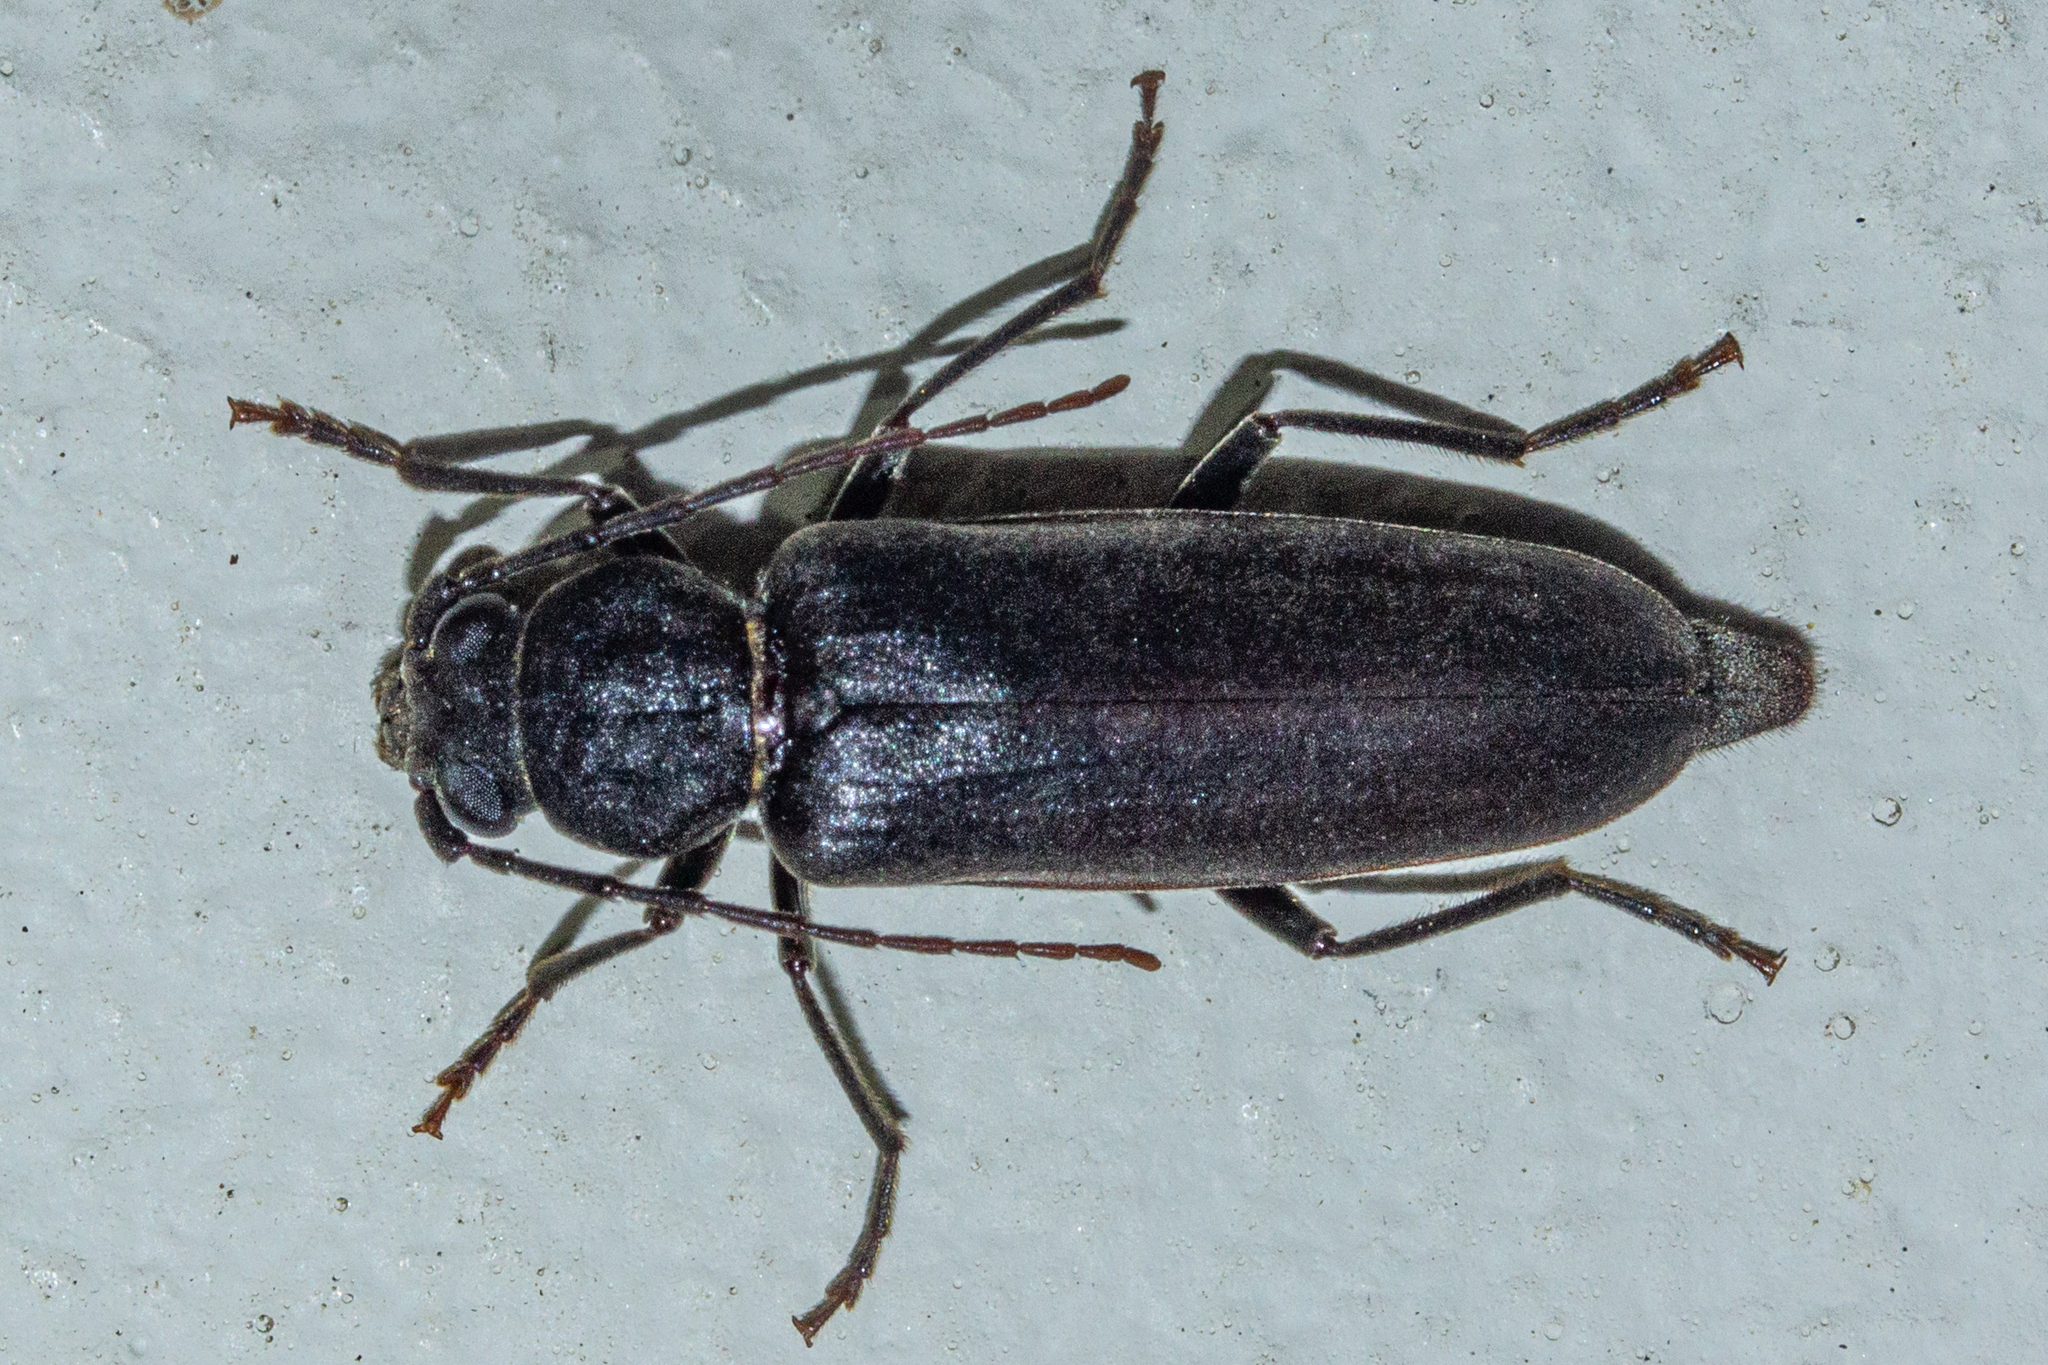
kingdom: Animalia
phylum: Arthropoda
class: Insecta
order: Coleoptera
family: Cerambycidae
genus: Arhopalus
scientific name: Arhopalus ferus
